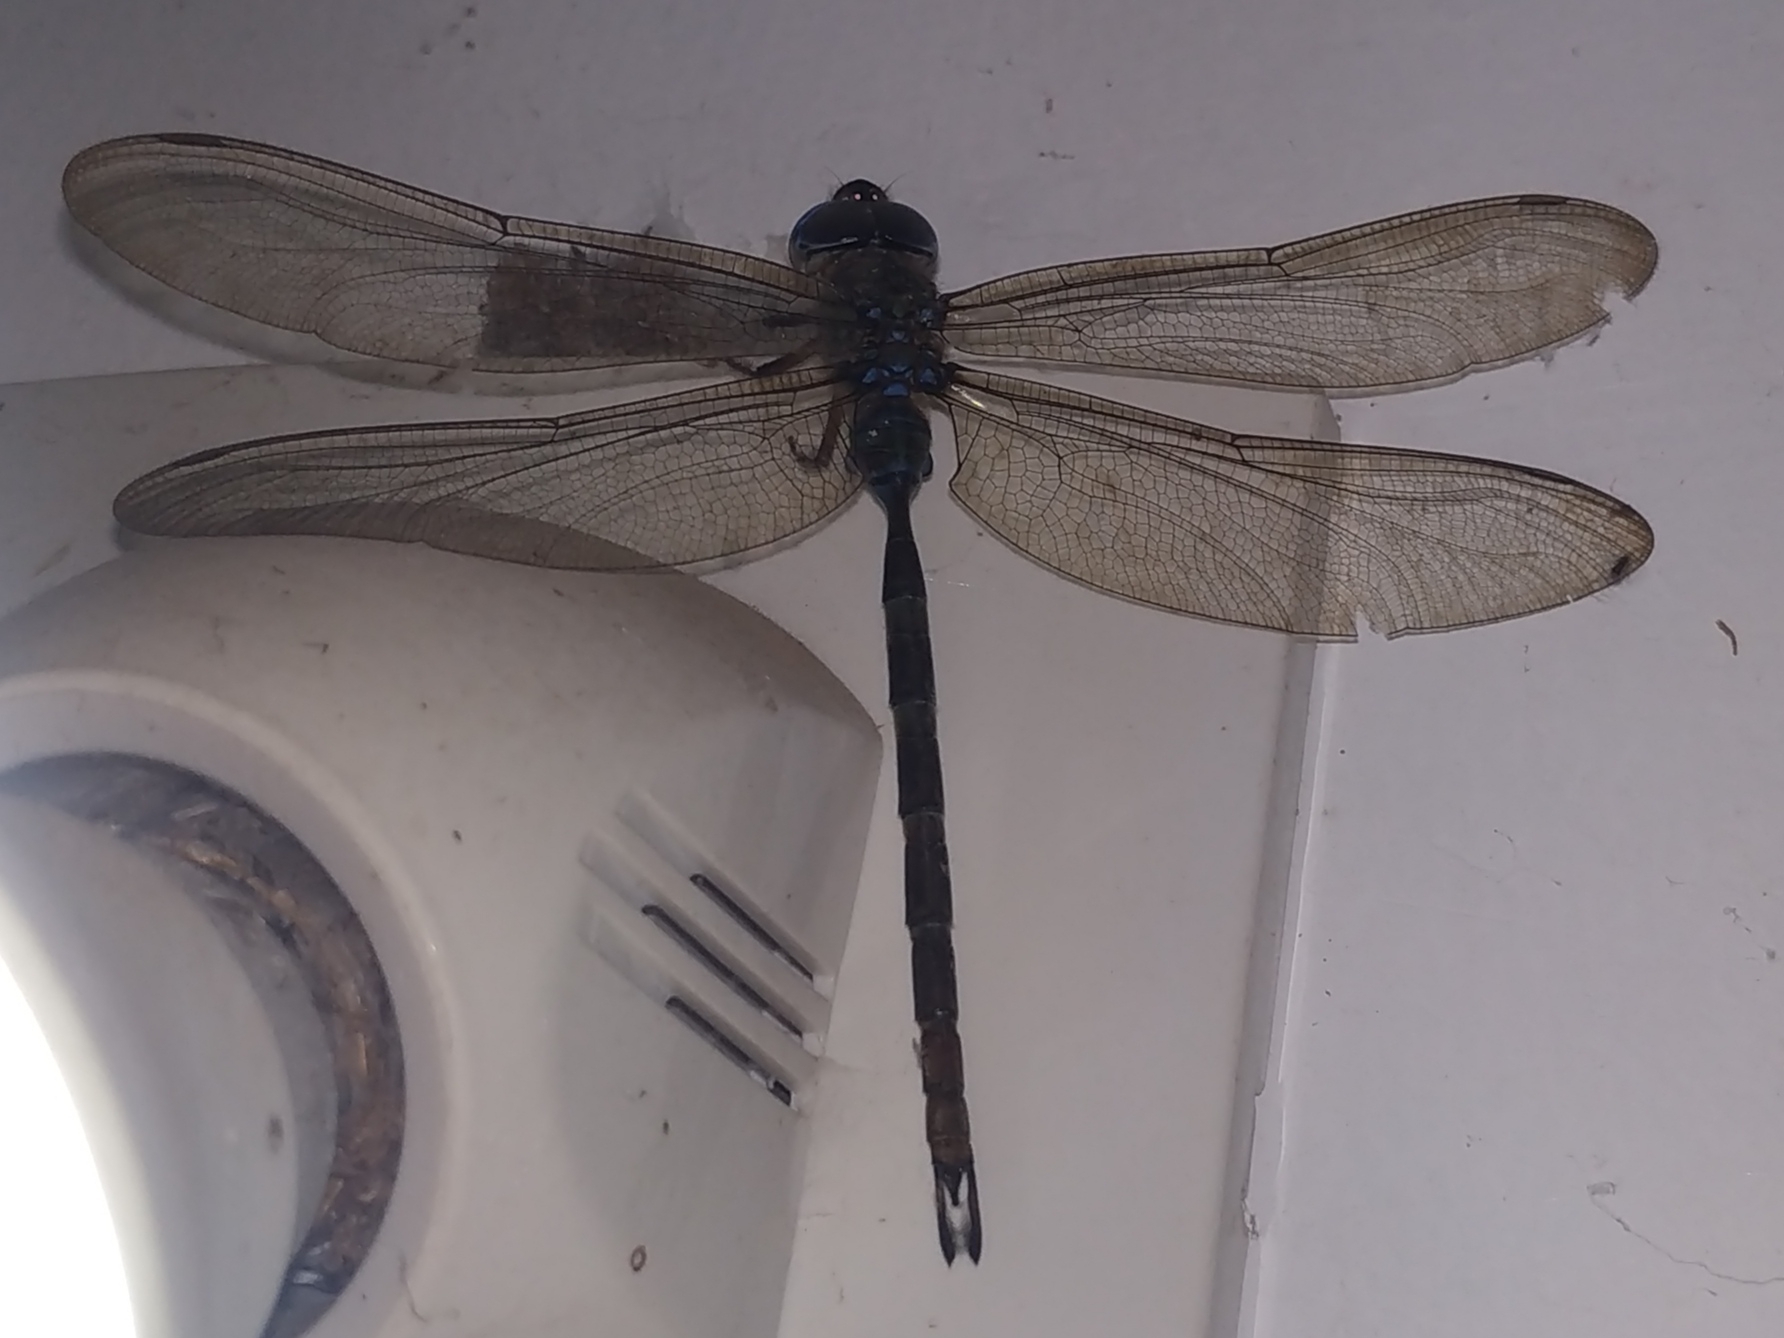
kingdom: Animalia
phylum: Arthropoda
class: Insecta
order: Odonata
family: Aeshnidae
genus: Gynacantha
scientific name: Gynacantha dravida
